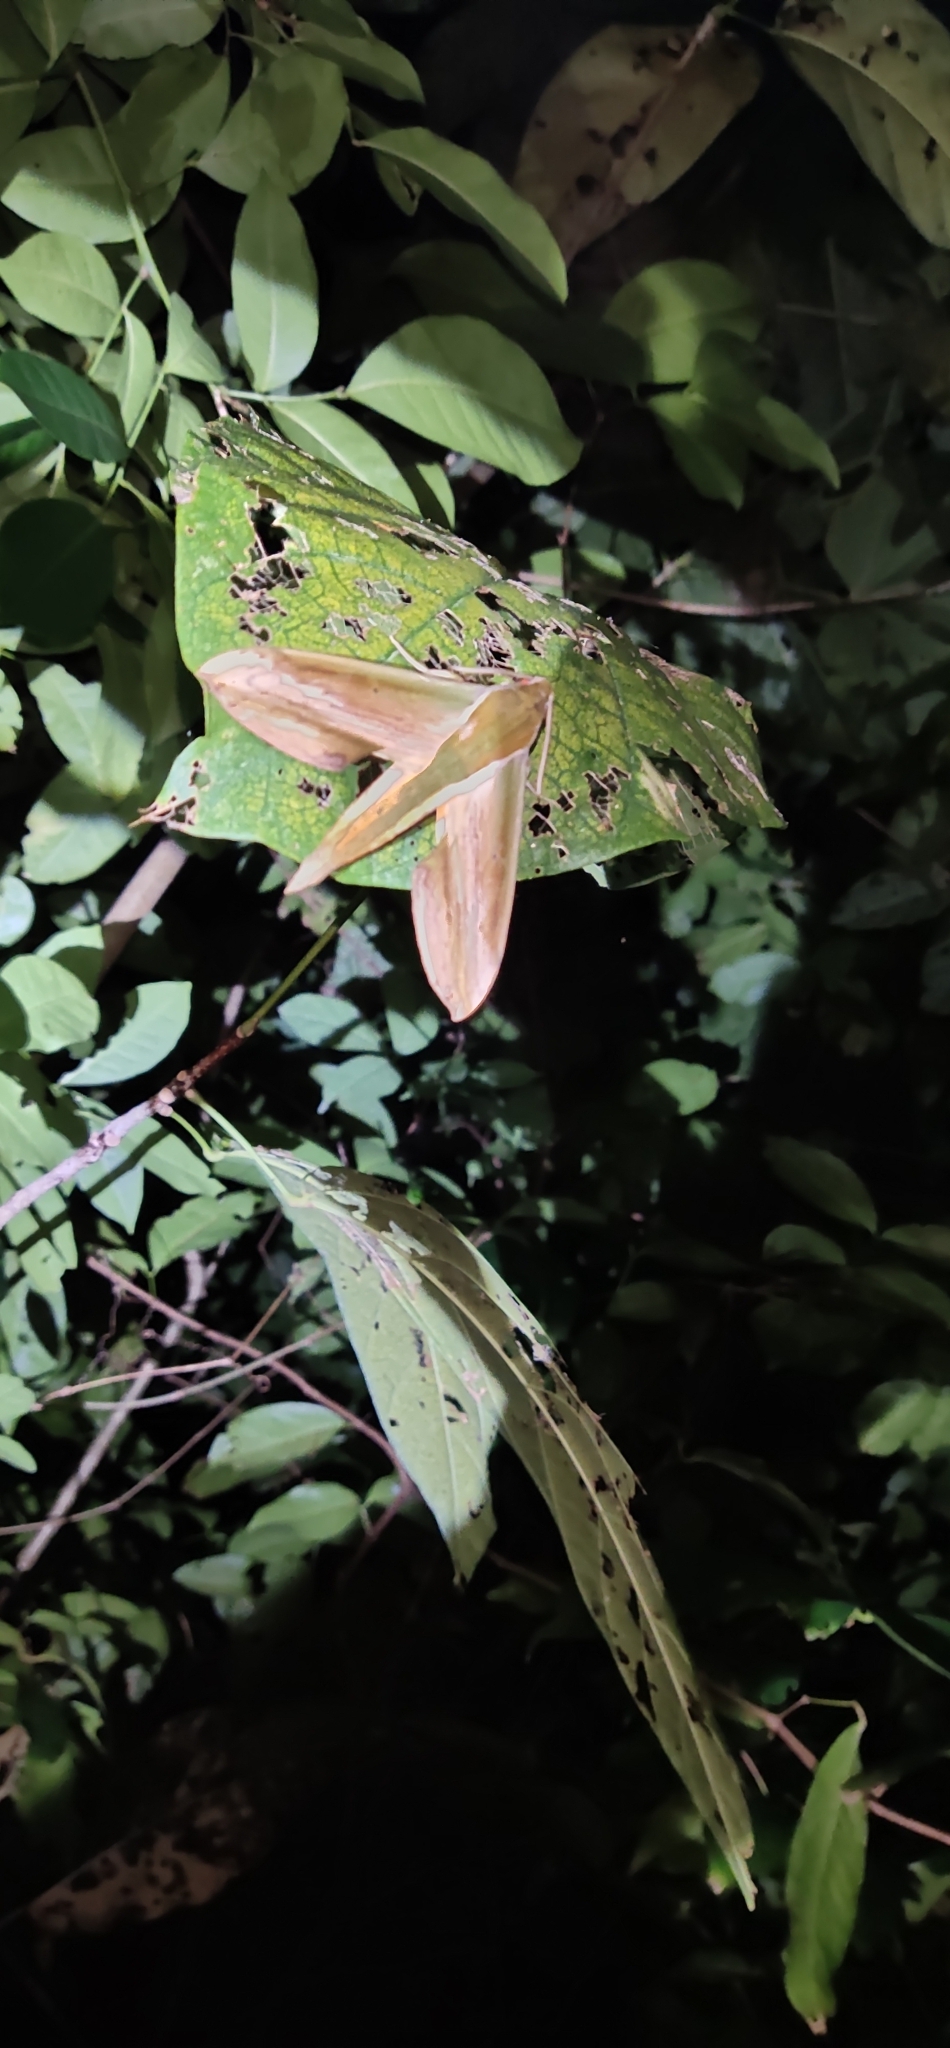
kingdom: Animalia
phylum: Arthropoda
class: Insecta
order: Lepidoptera
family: Sphingidae
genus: Theretra
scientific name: Theretra nessus
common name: Yam hawk moth
